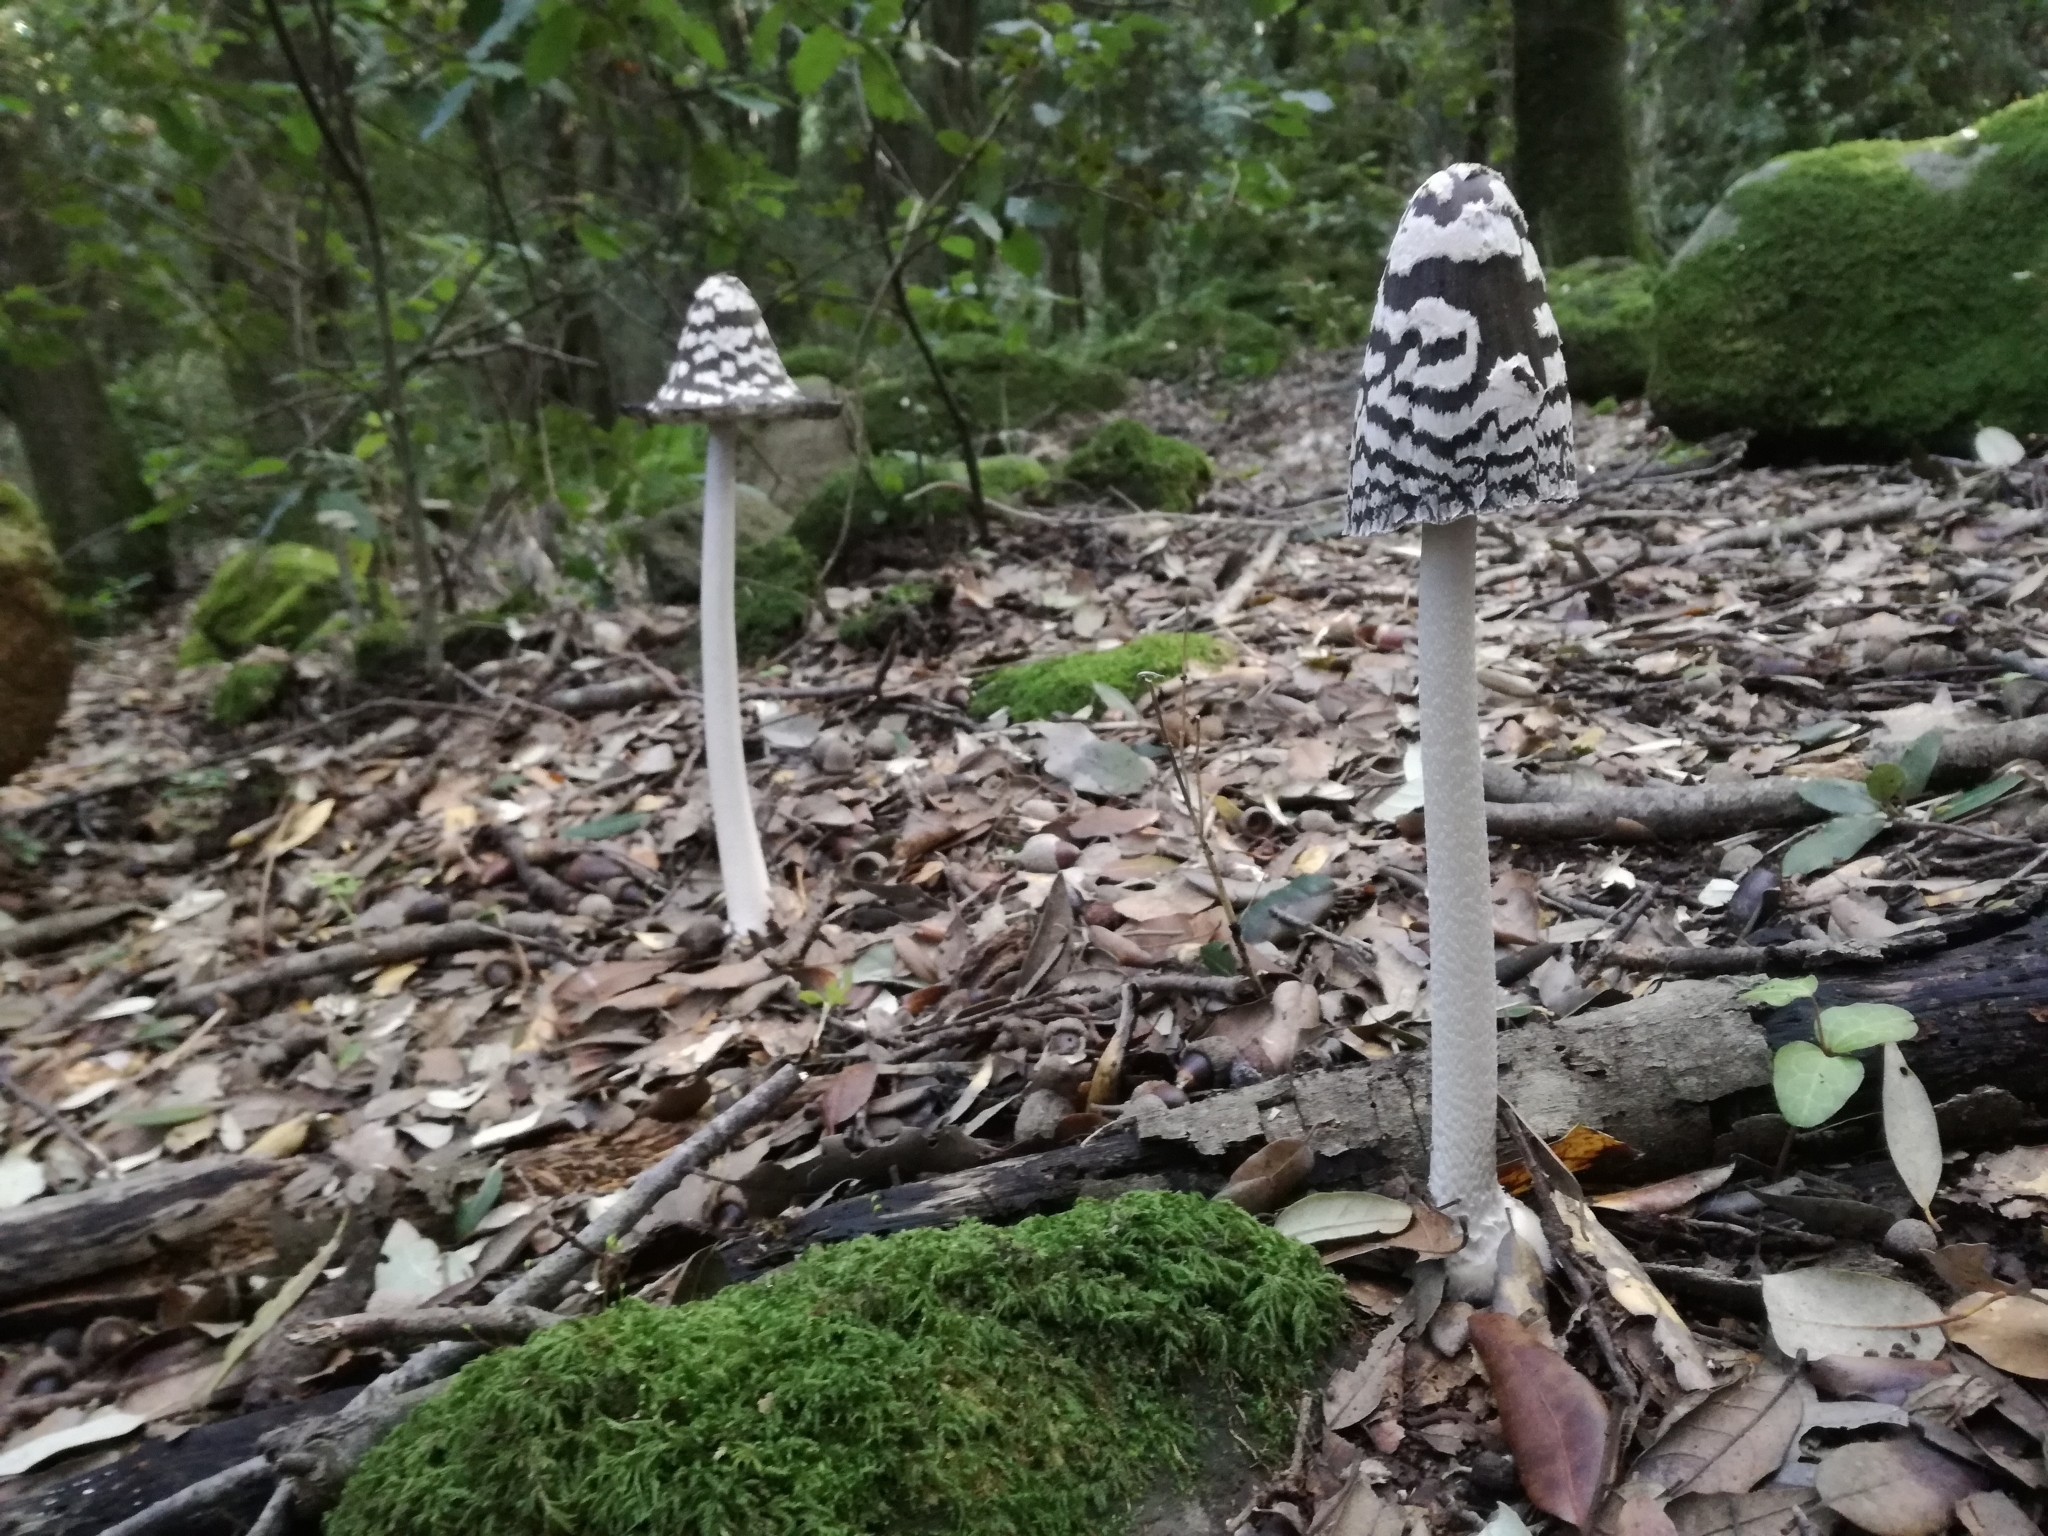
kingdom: Fungi
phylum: Basidiomycota
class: Agaricomycetes
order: Agaricales
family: Psathyrellaceae
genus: Coprinopsis
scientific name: Coprinopsis picacea
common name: Magpie inkcap
